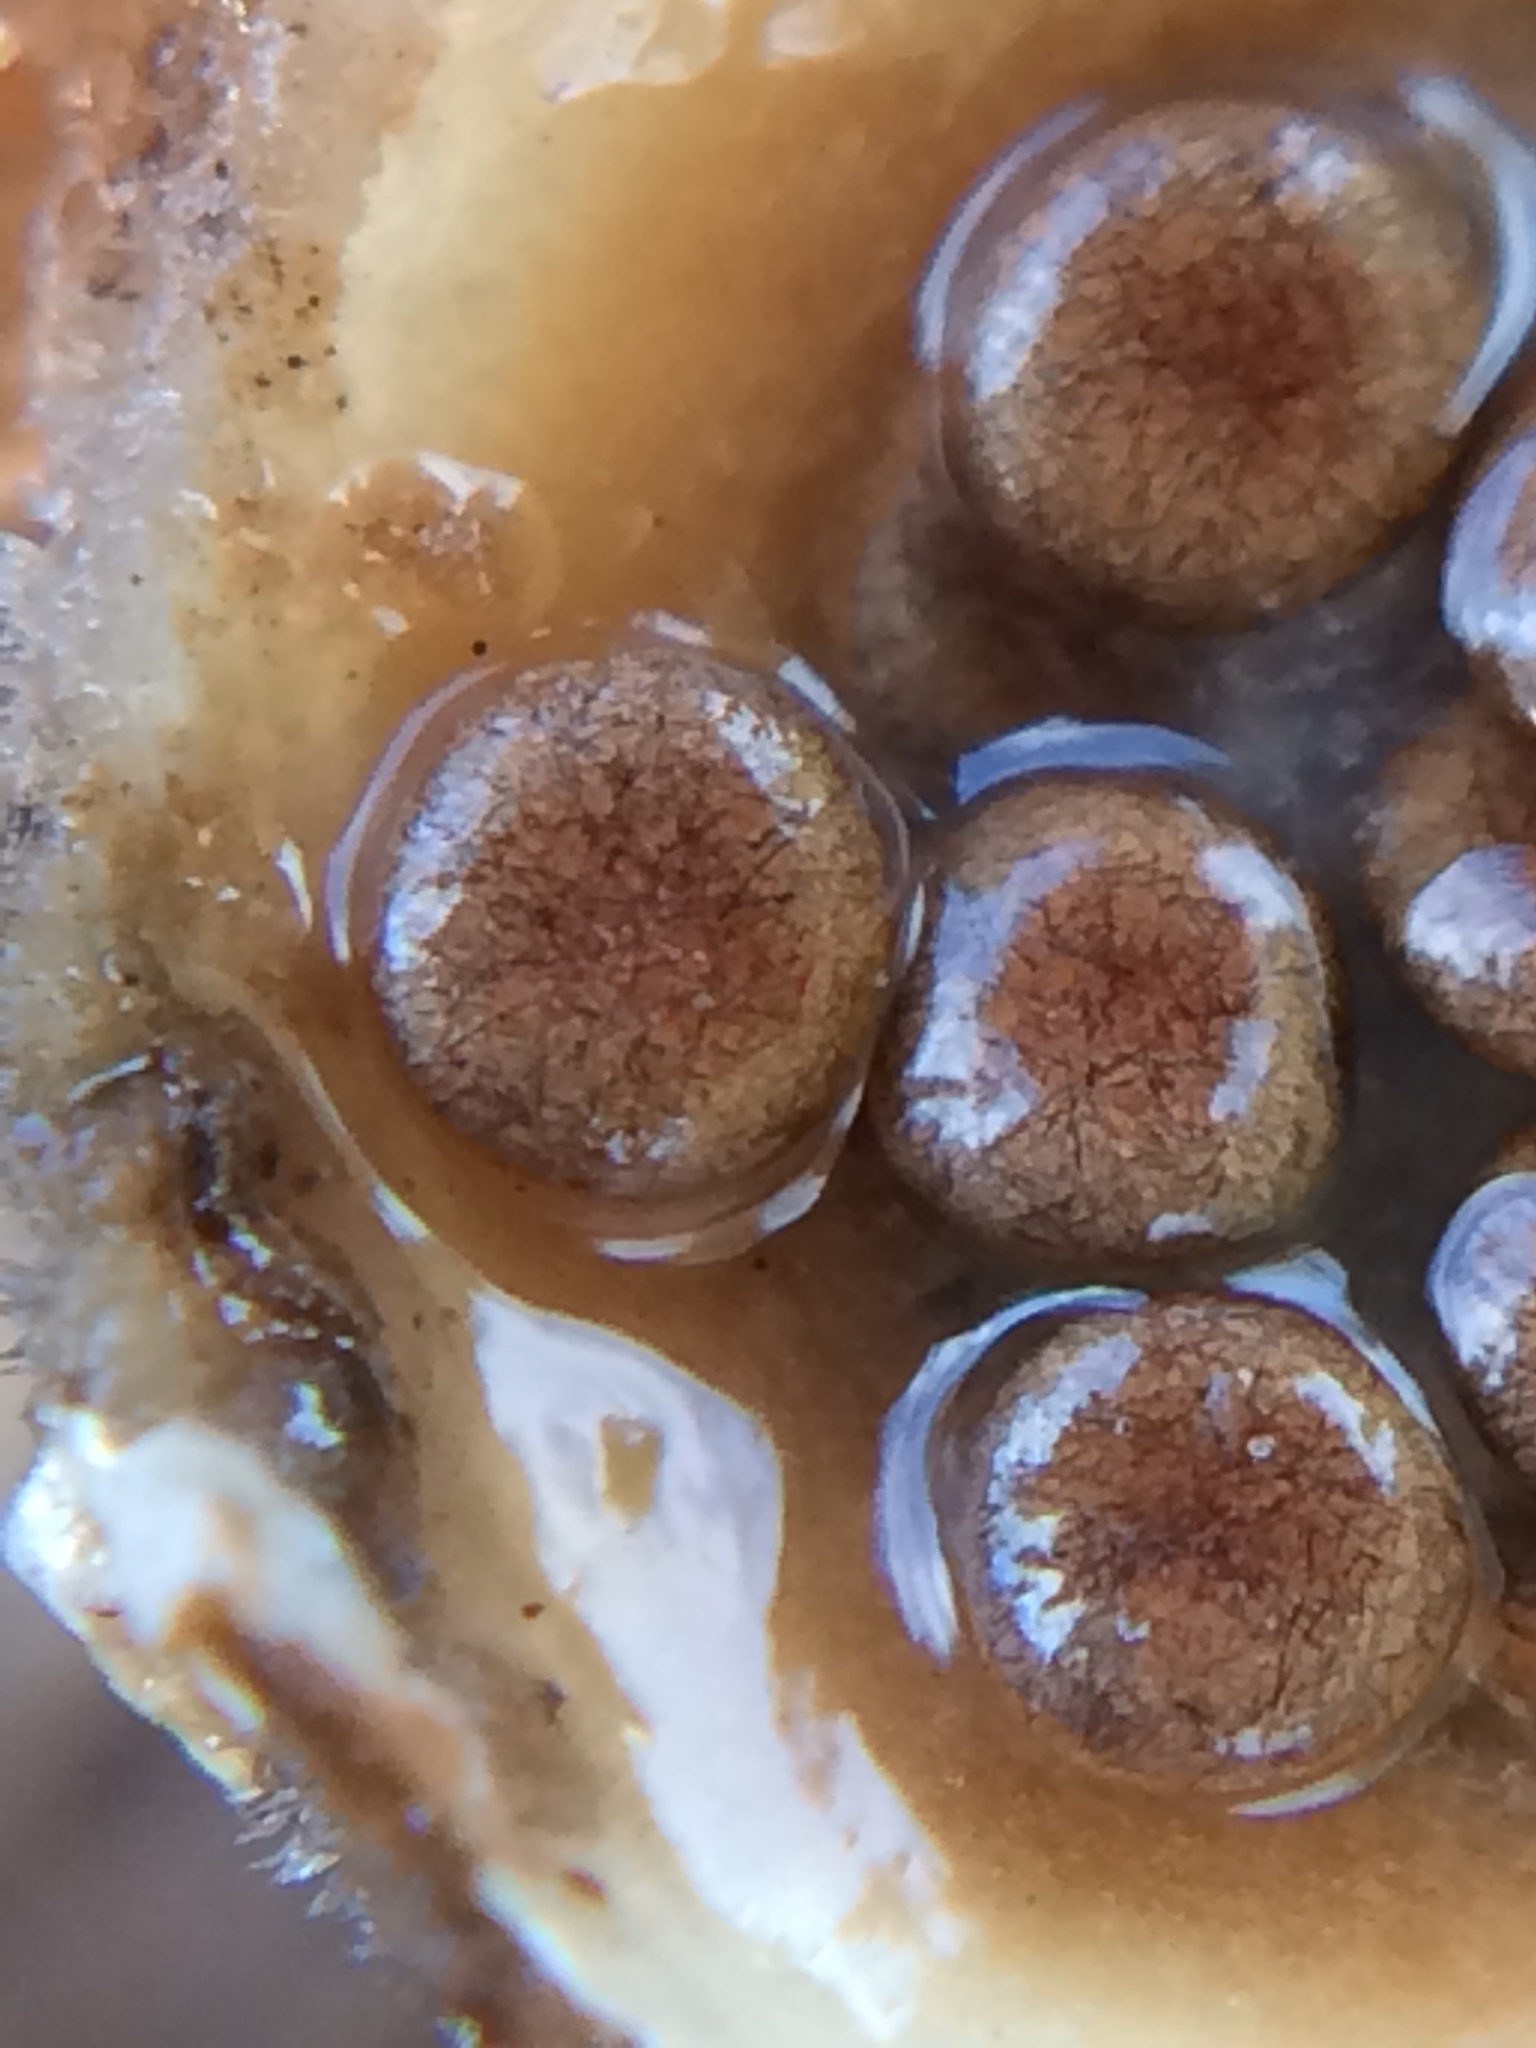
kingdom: Fungi
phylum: Basidiomycota
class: Agaricomycetes
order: Agaricales
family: Agaricaceae
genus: Nidula
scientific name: Nidula niveotomentosa
